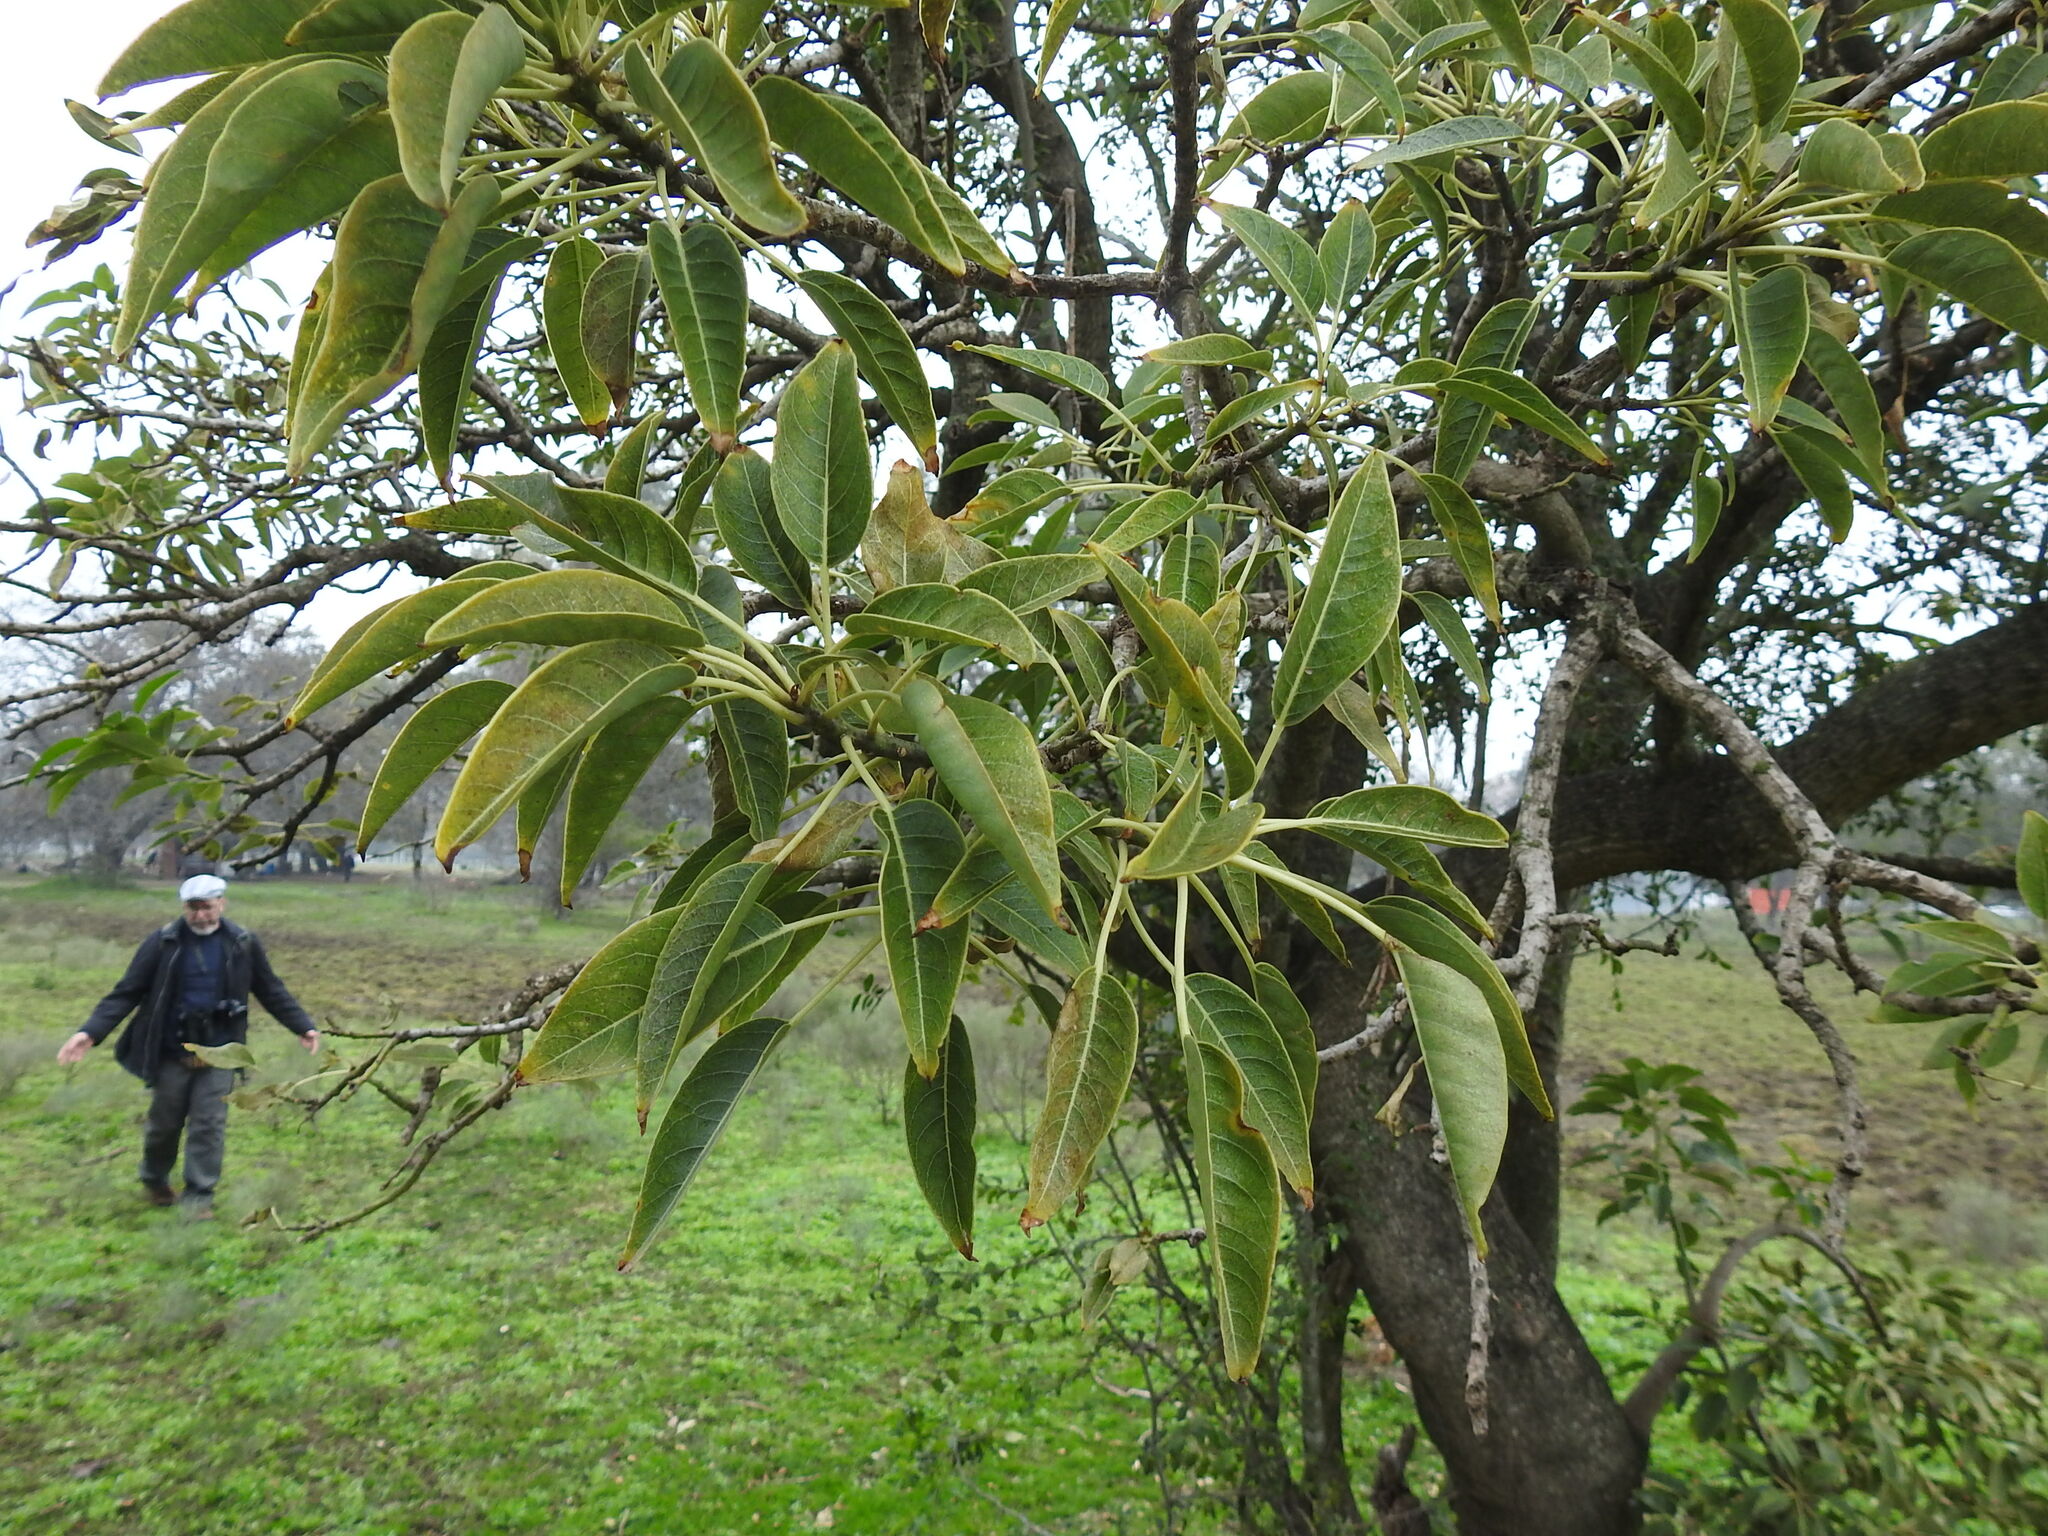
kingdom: Plantae
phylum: Tracheophyta
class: Magnoliopsida
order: Caryophyllales
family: Phytolaccaceae
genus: Phytolacca
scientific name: Phytolacca dioica
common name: Pokeweed
